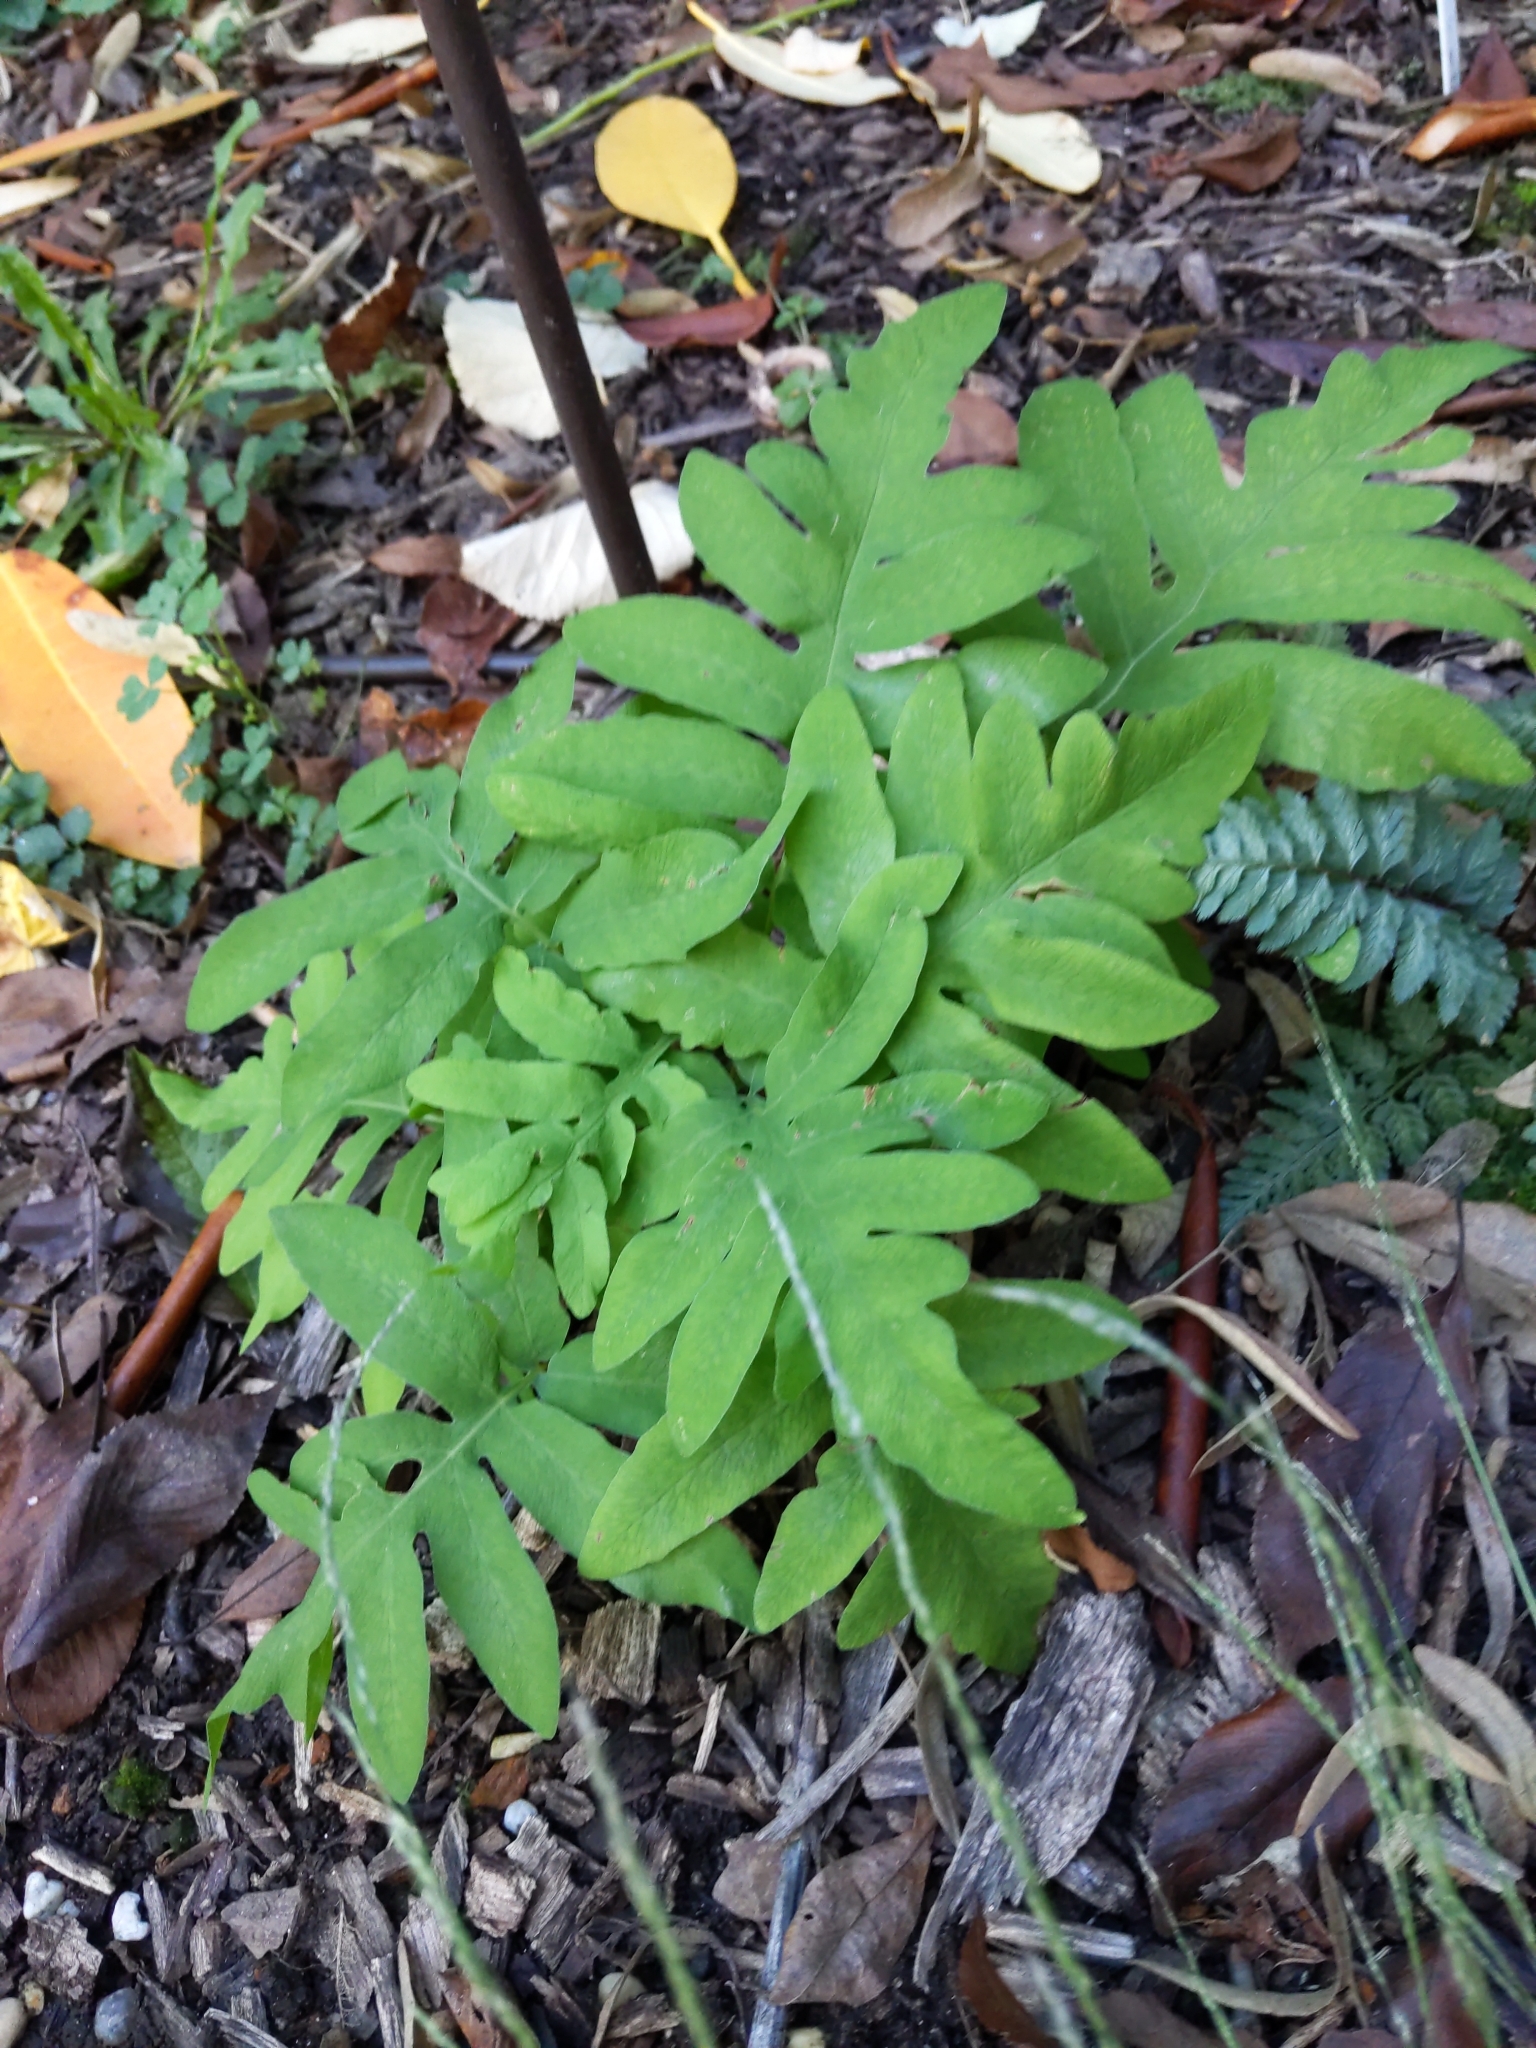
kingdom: Plantae
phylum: Tracheophyta
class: Polypodiopsida
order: Polypodiales
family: Onocleaceae
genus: Onoclea
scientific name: Onoclea sensibilis
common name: Sensitive fern
